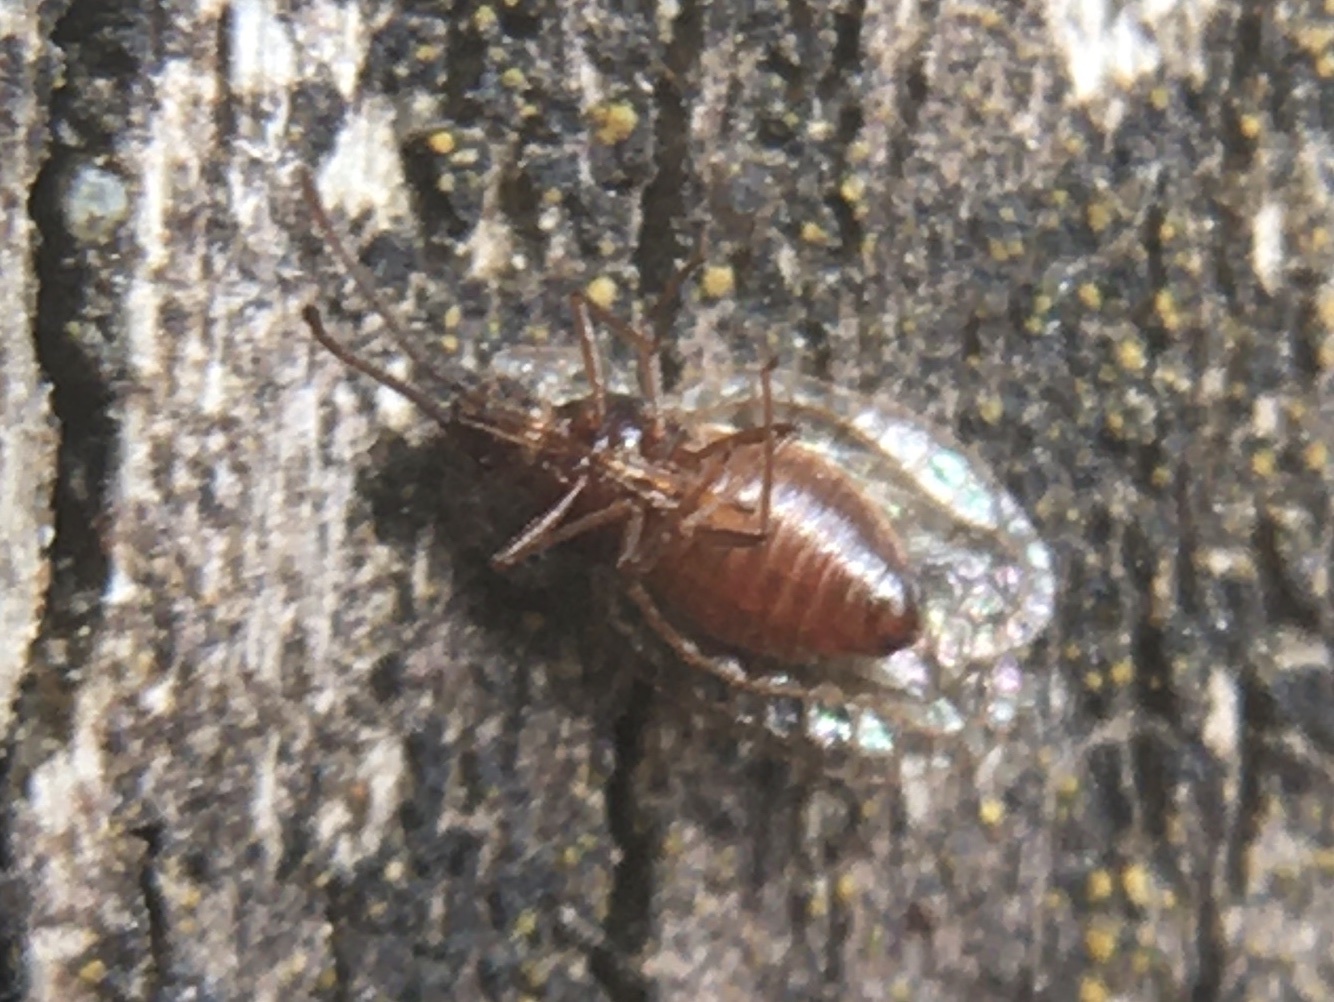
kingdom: Animalia
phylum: Arthropoda
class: Insecta
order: Hemiptera
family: Tingidae
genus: Derephysia
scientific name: Derephysia foliacea
